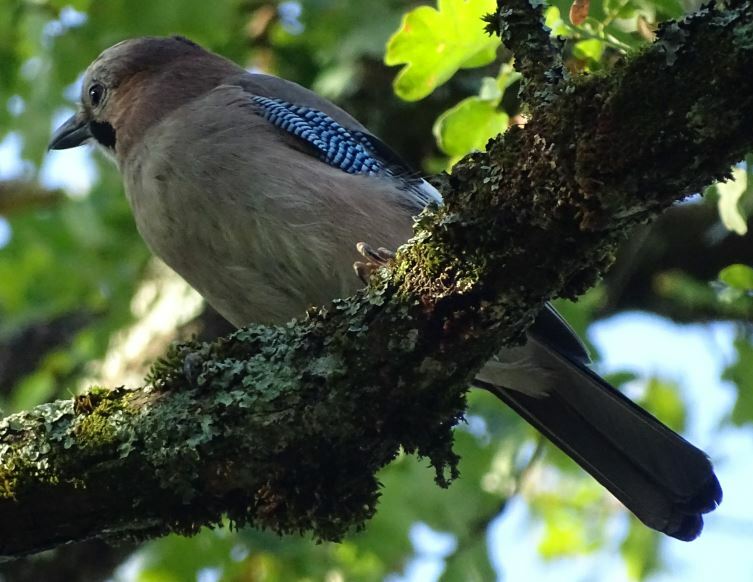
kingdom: Animalia
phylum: Chordata
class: Aves
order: Passeriformes
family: Corvidae
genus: Garrulus
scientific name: Garrulus glandarius
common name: Eurasian jay
